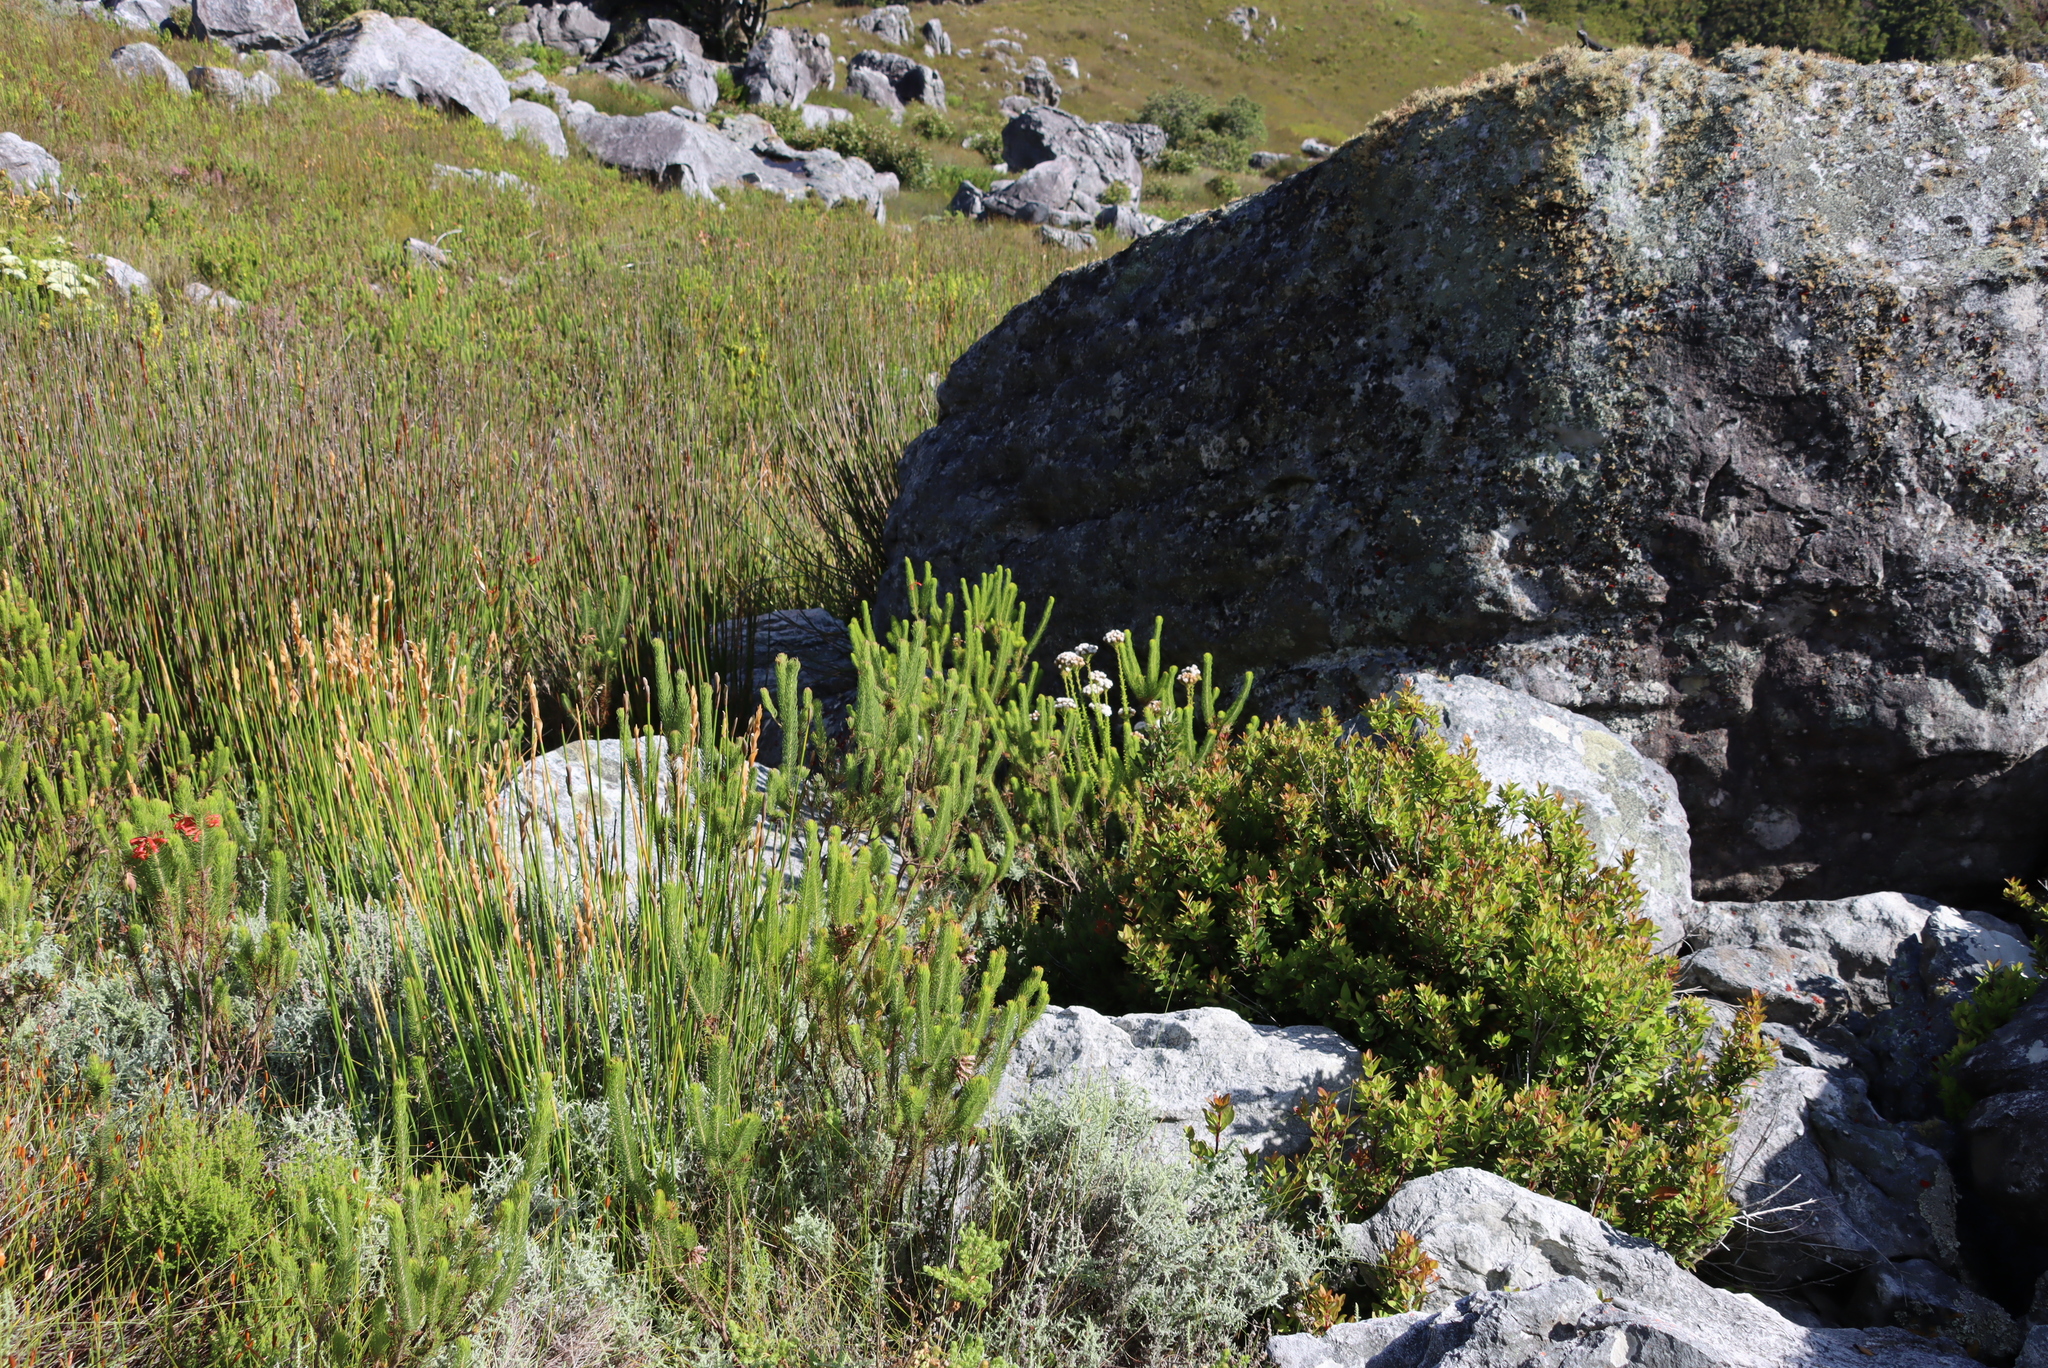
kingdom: Plantae
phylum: Tracheophyta
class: Magnoliopsida
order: Lamiales
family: Scrophulariaceae
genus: Pseudoselago
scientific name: Pseudoselago serrata
